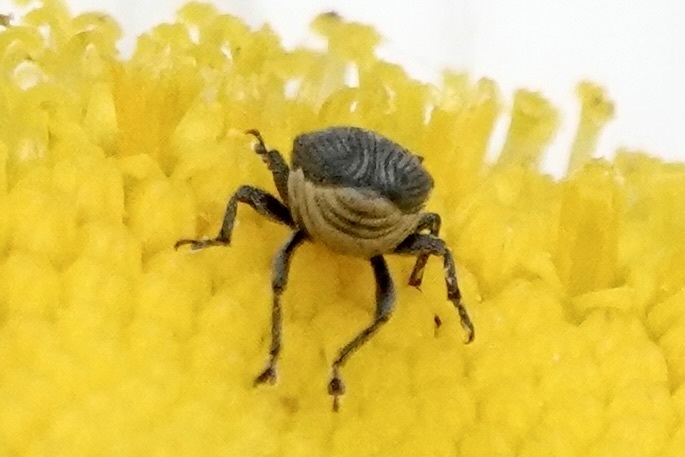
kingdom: Animalia
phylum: Arthropoda
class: Insecta
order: Coleoptera
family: Curculionidae
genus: Odontocorynus
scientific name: Odontocorynus salebrosus
